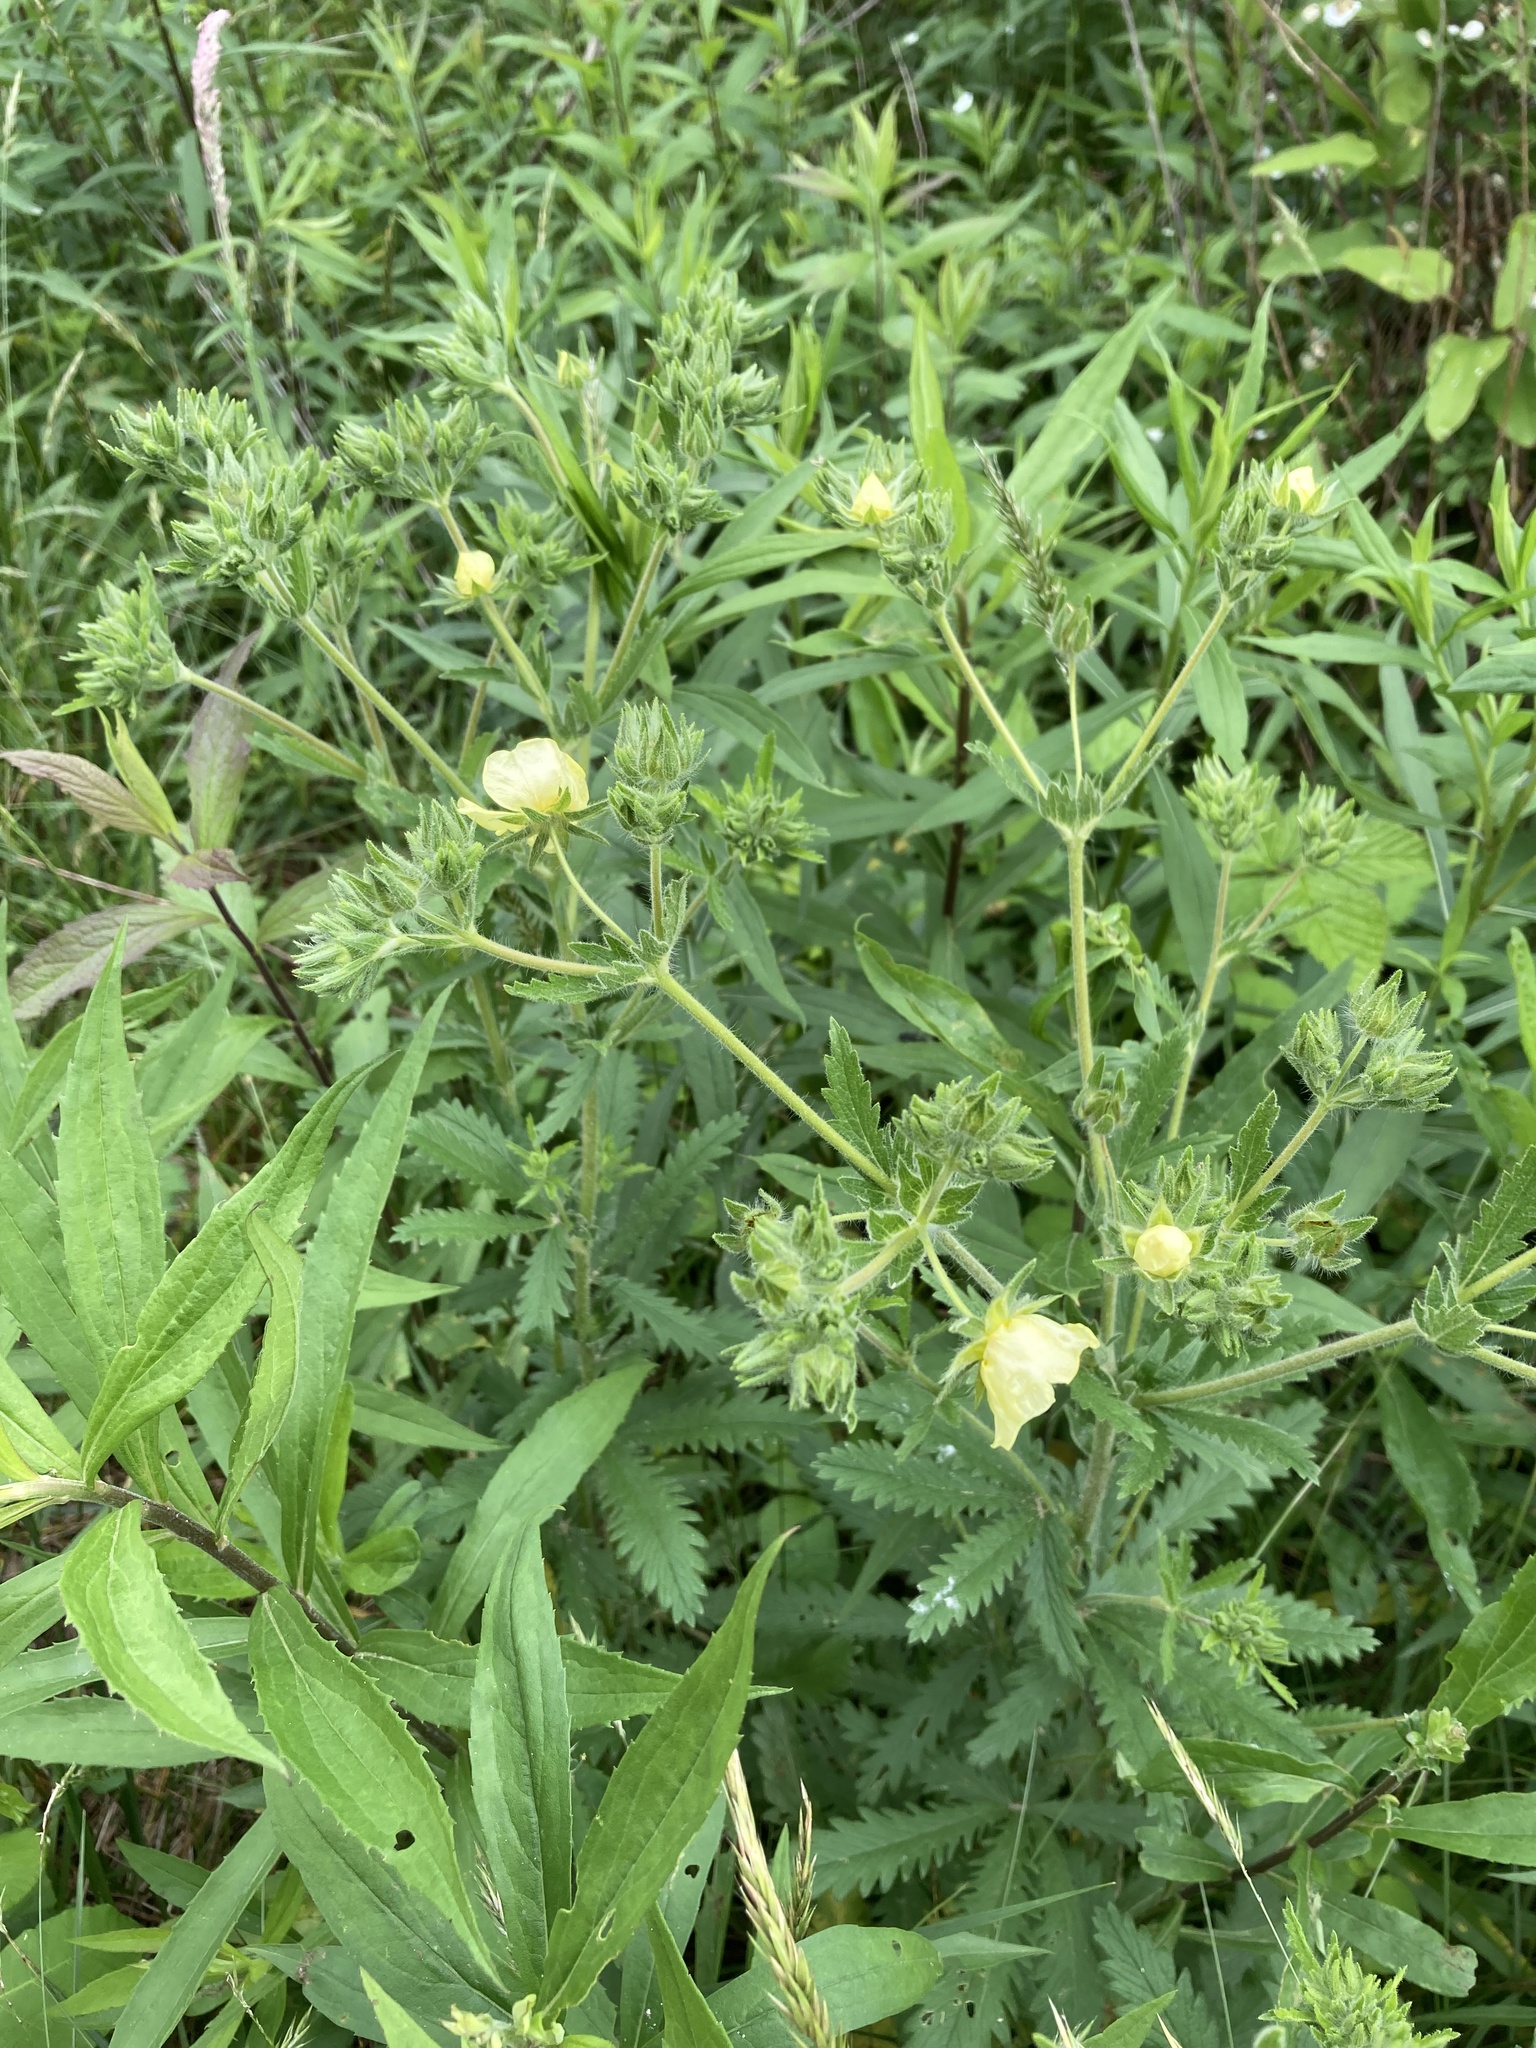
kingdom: Plantae
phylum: Tracheophyta
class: Magnoliopsida
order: Rosales
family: Rosaceae
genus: Potentilla
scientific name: Potentilla recta
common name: Sulphur cinquefoil
